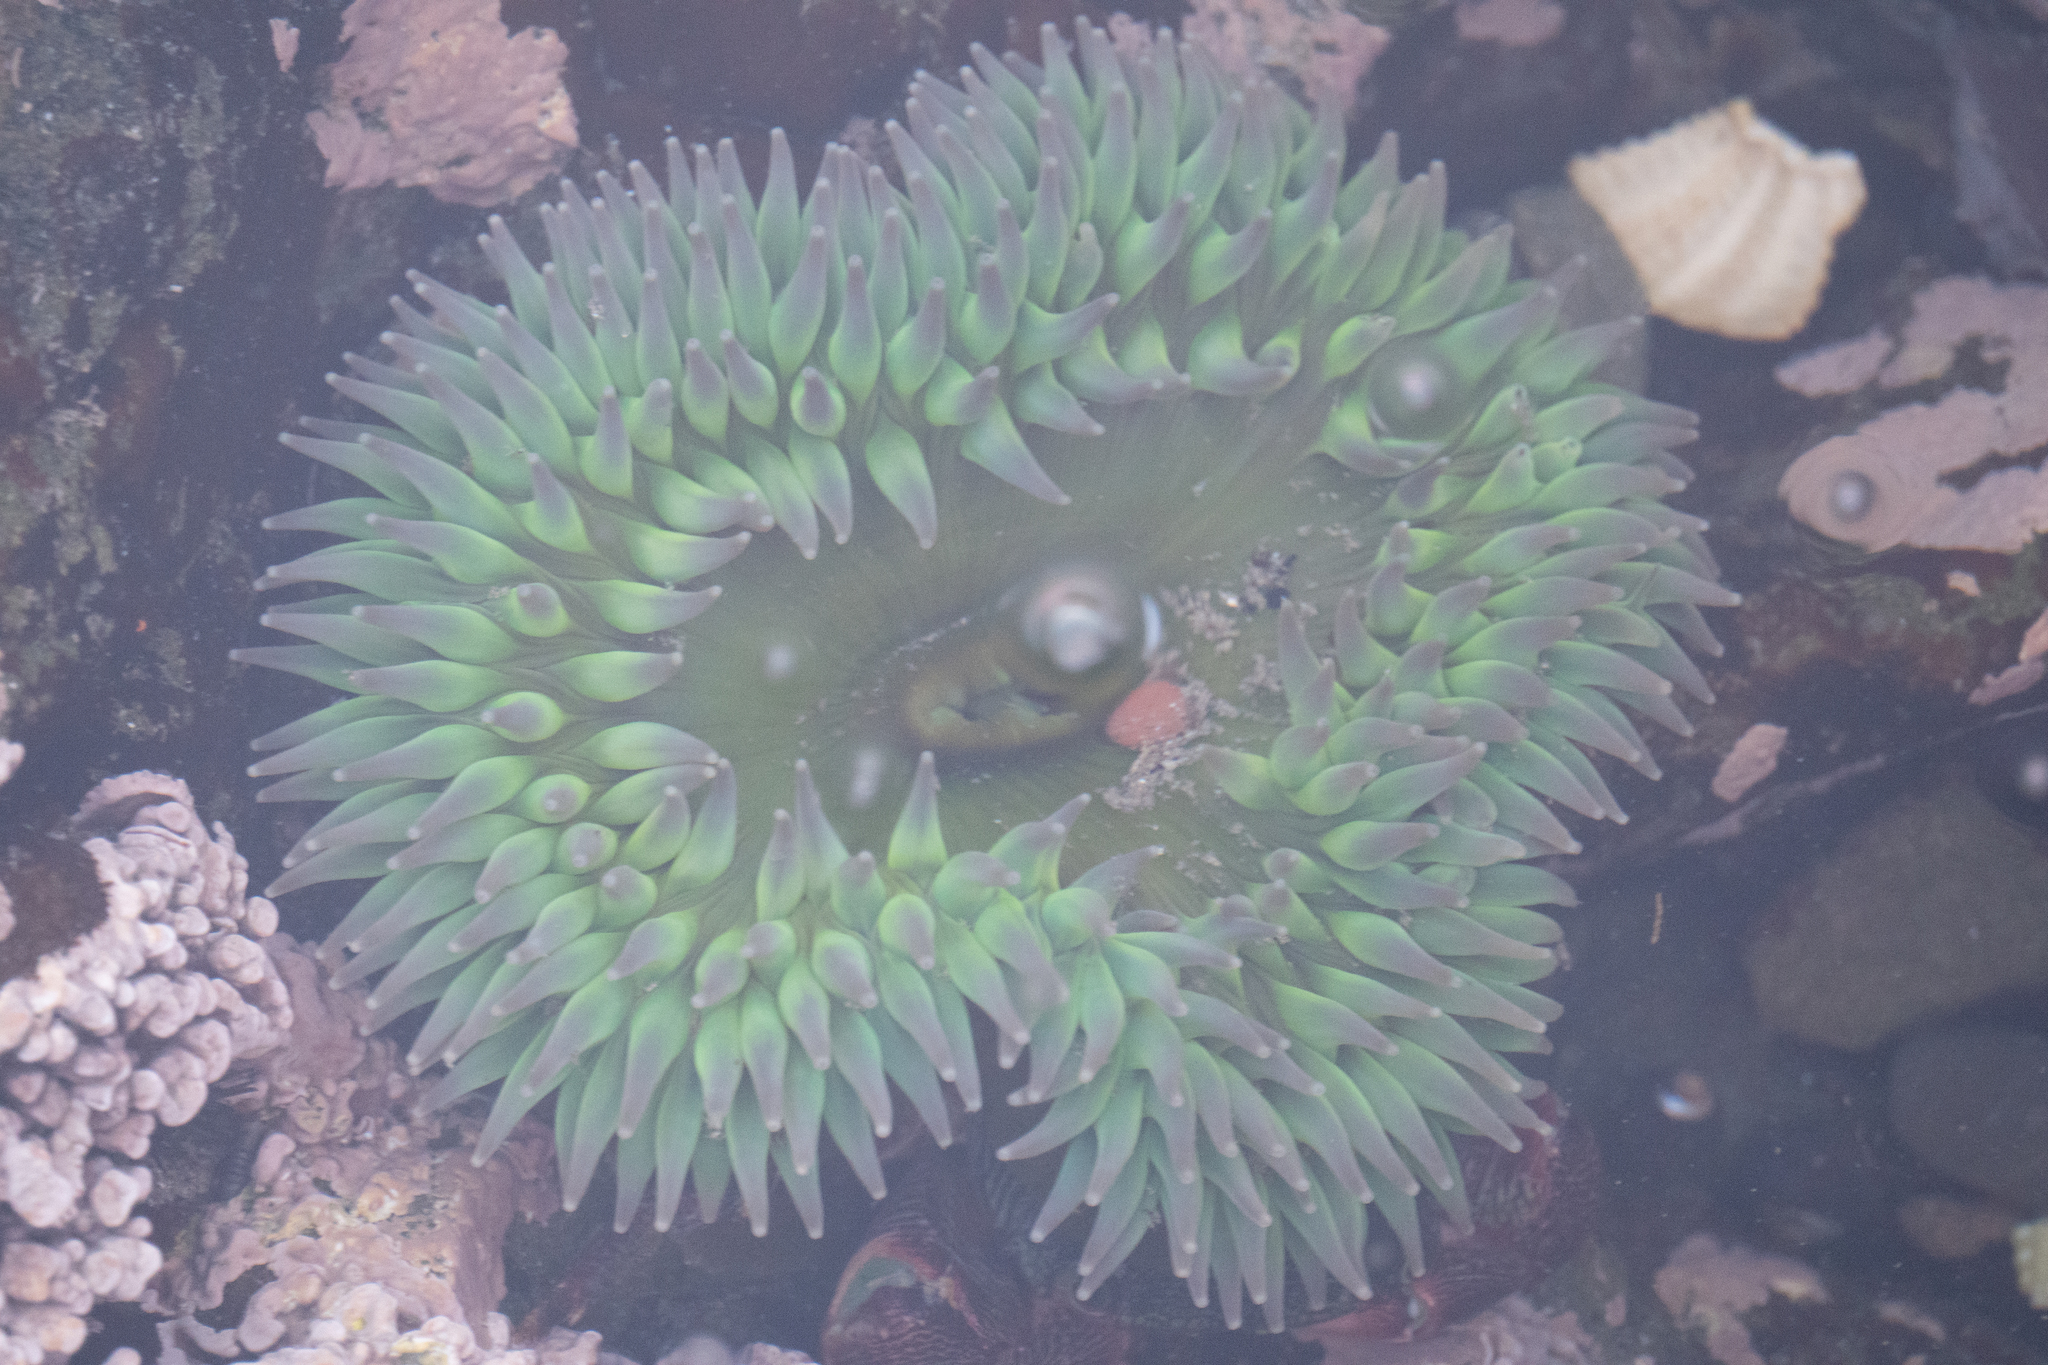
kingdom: Animalia
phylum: Cnidaria
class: Anthozoa
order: Actiniaria
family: Actiniidae
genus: Anthopleura
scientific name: Anthopleura xanthogrammica
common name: Giant green anemone
